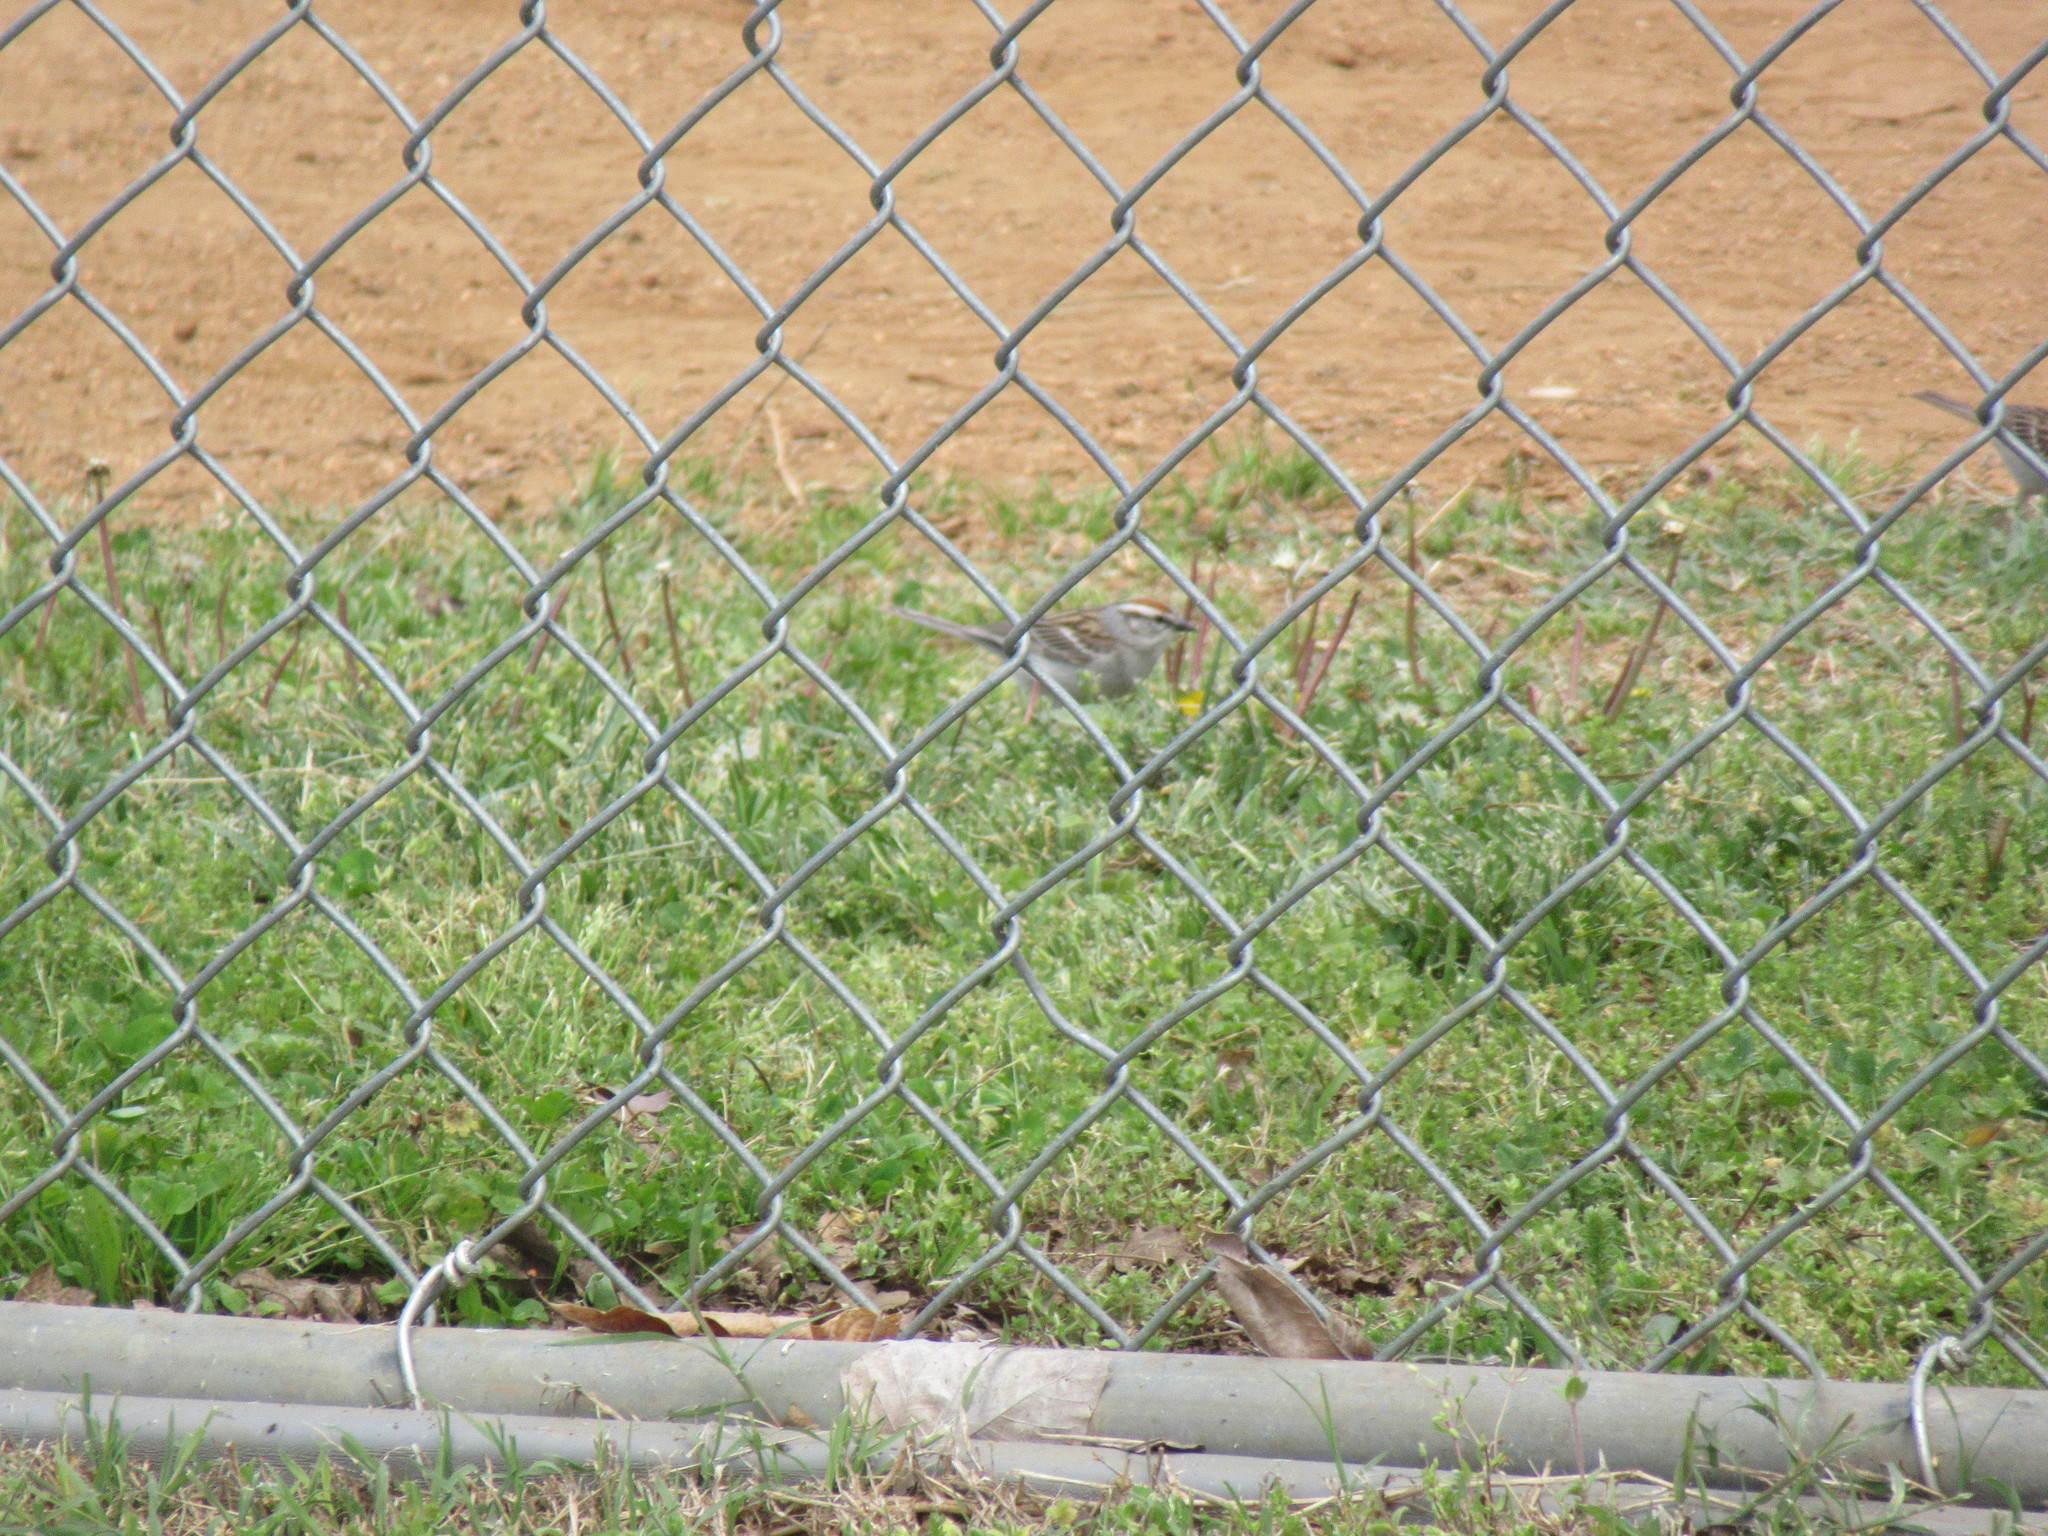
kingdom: Animalia
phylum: Chordata
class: Aves
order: Passeriformes
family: Passerellidae
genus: Spizella
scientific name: Spizella passerina
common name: Chipping sparrow
